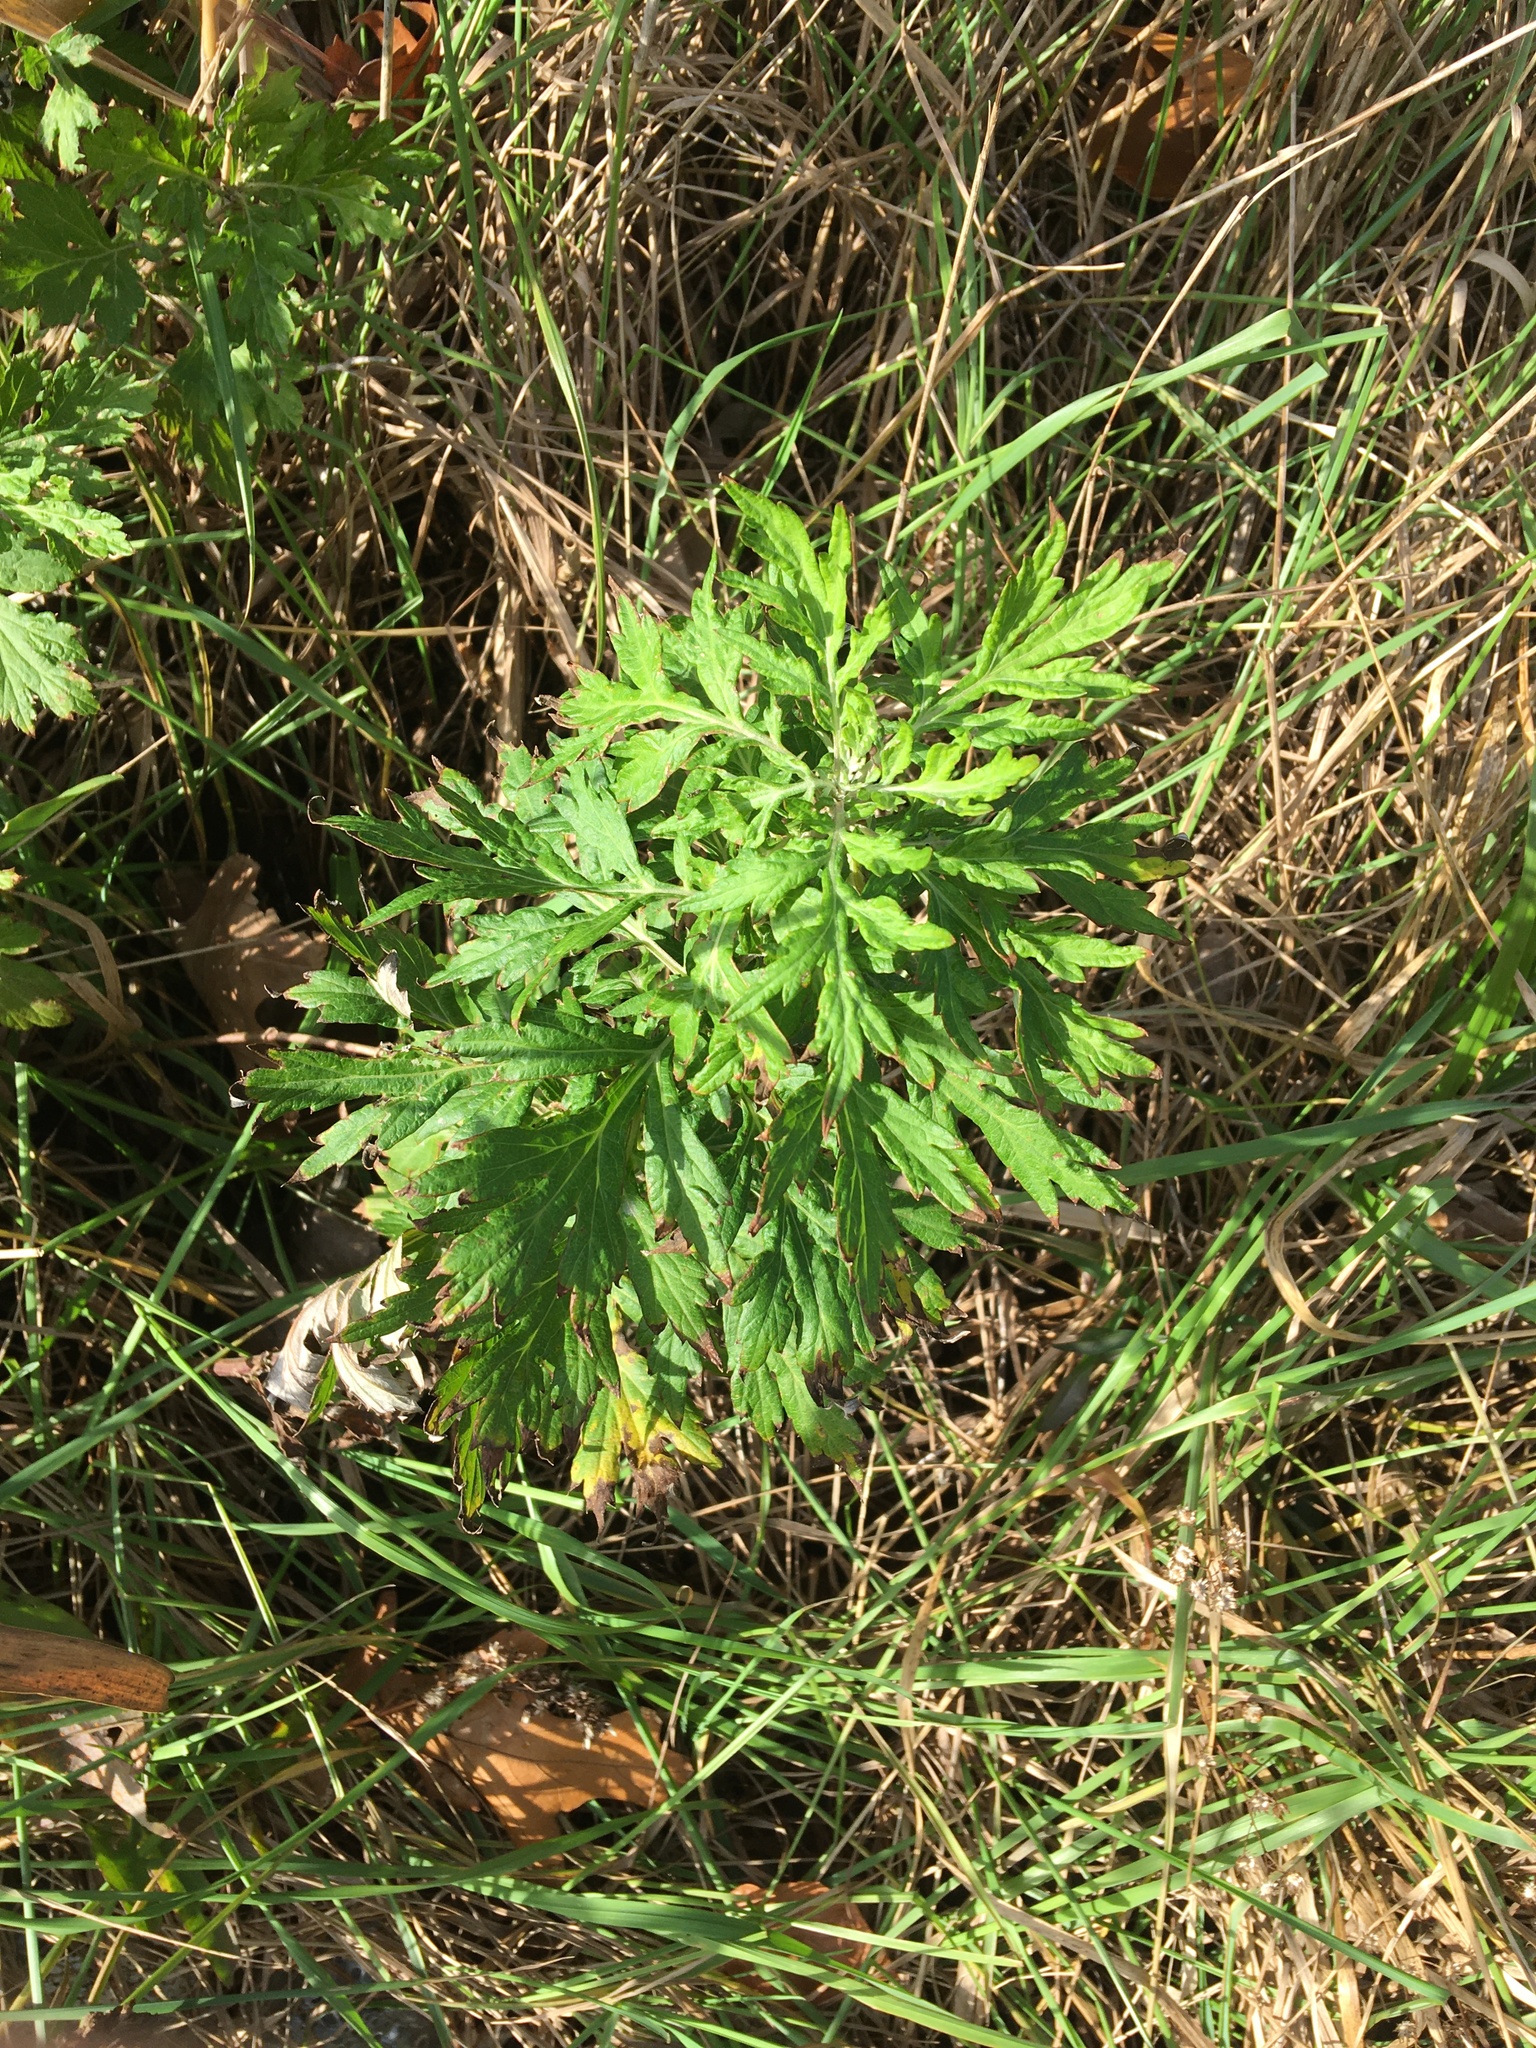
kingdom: Plantae
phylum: Tracheophyta
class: Magnoliopsida
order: Asterales
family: Asteraceae
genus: Artemisia
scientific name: Artemisia vulgaris
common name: Mugwort
